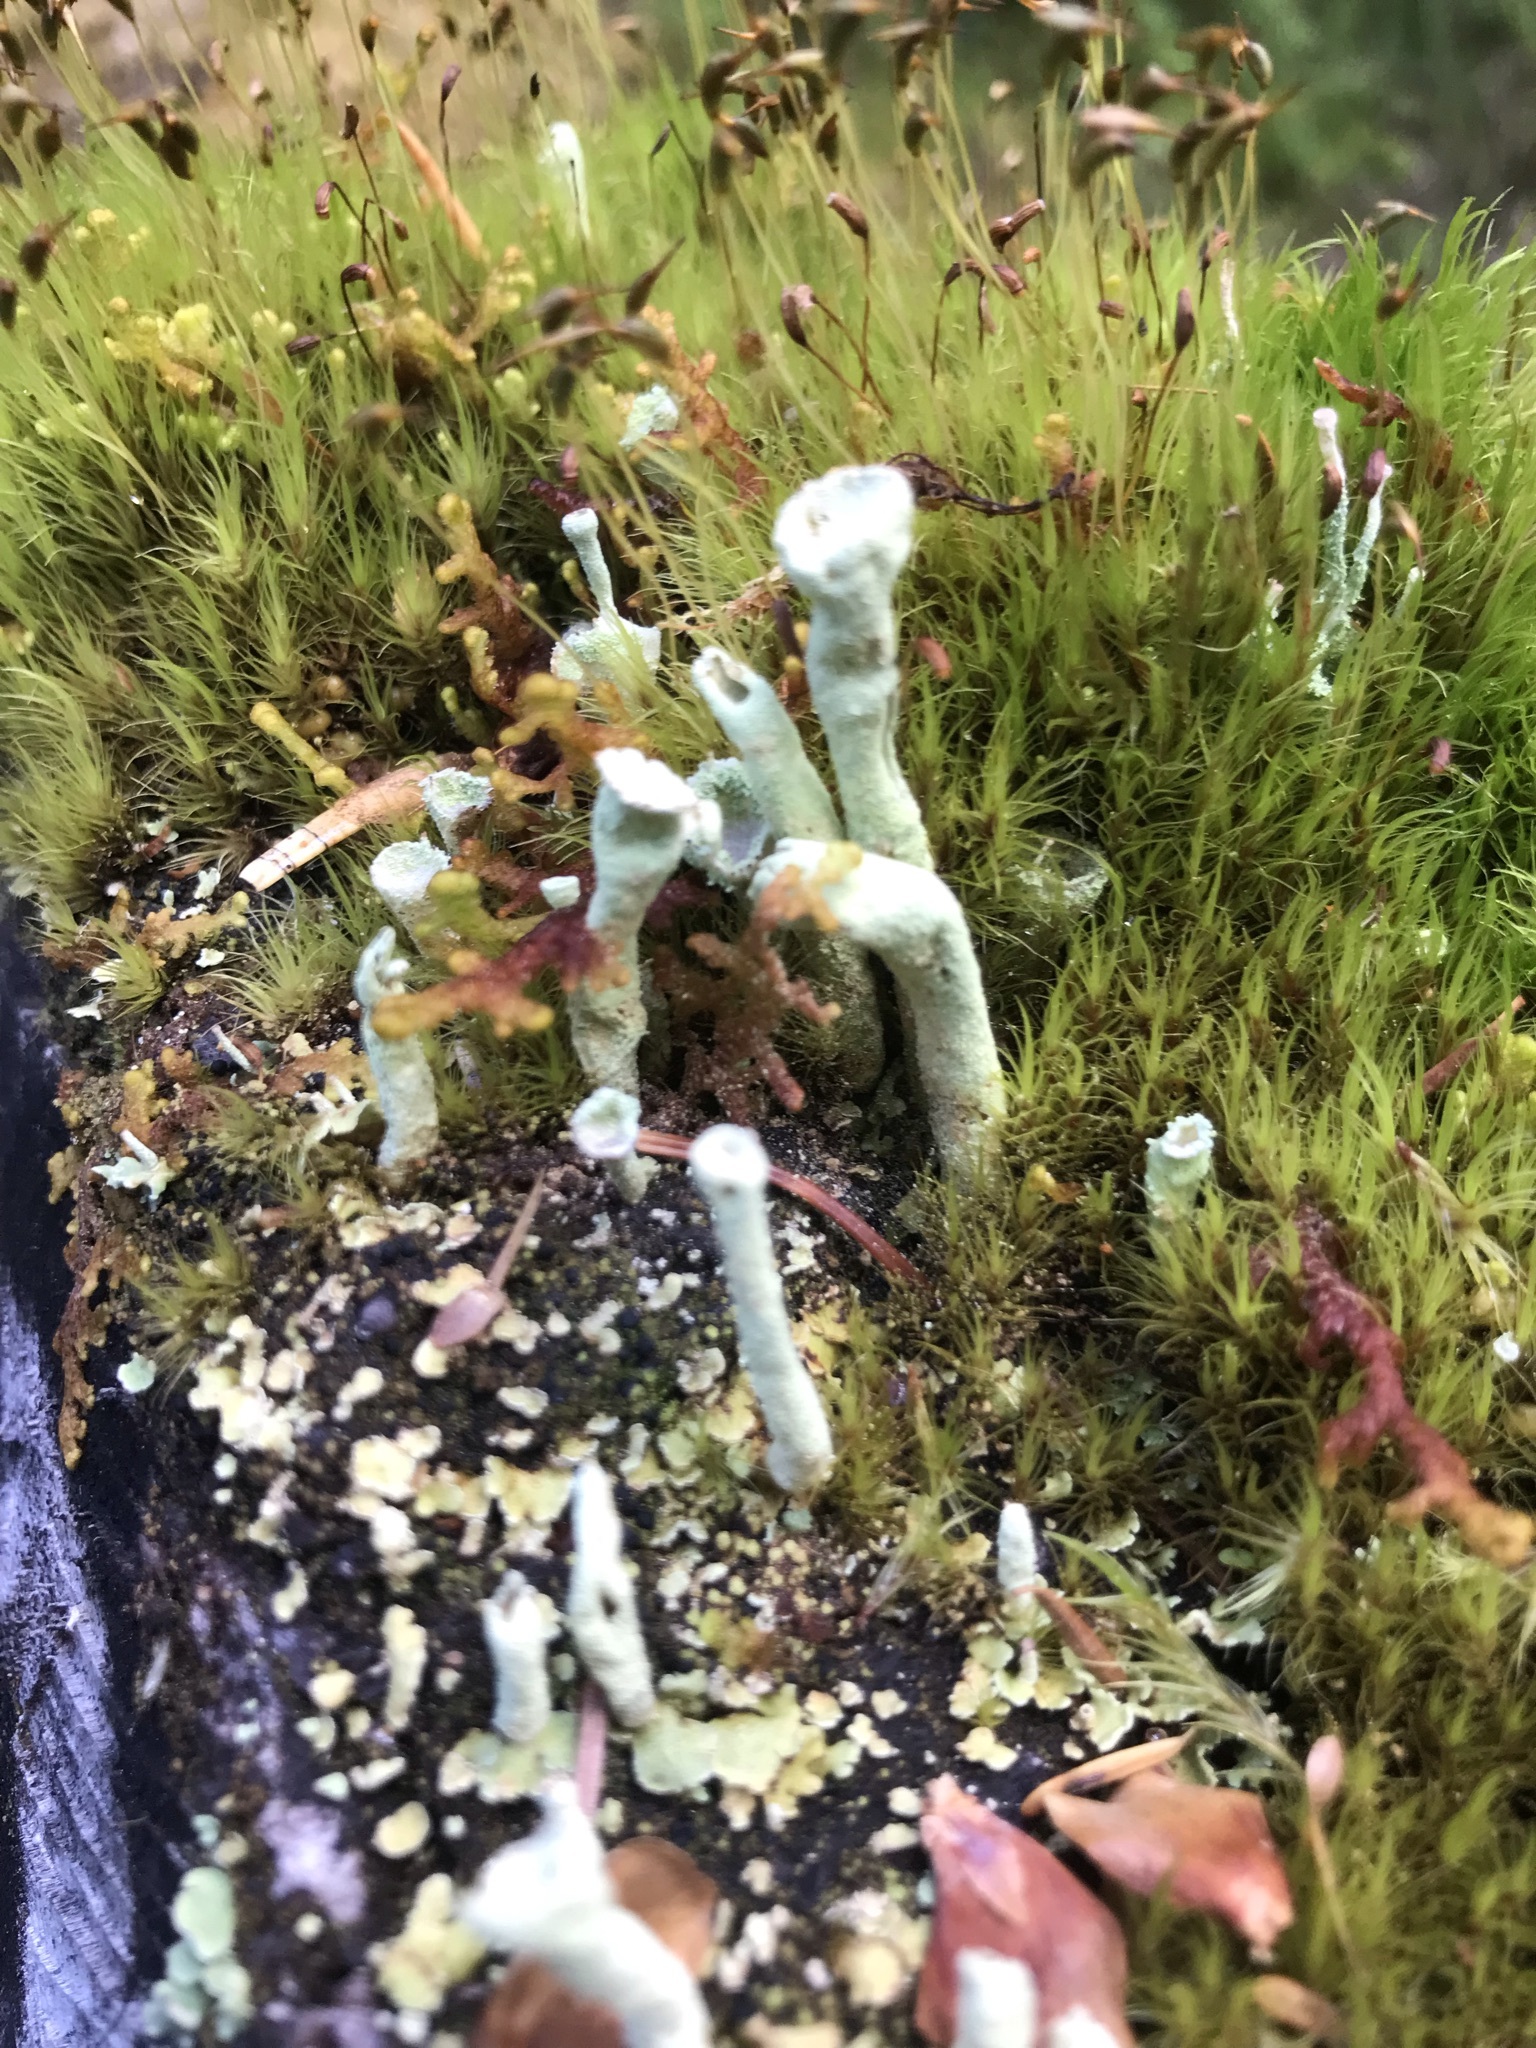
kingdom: Fungi
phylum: Ascomycota
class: Lecanoromycetes
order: Lecanorales
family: Cladoniaceae
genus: Cladonia
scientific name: Cladonia chlorophaea
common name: Mealy pixie cup
